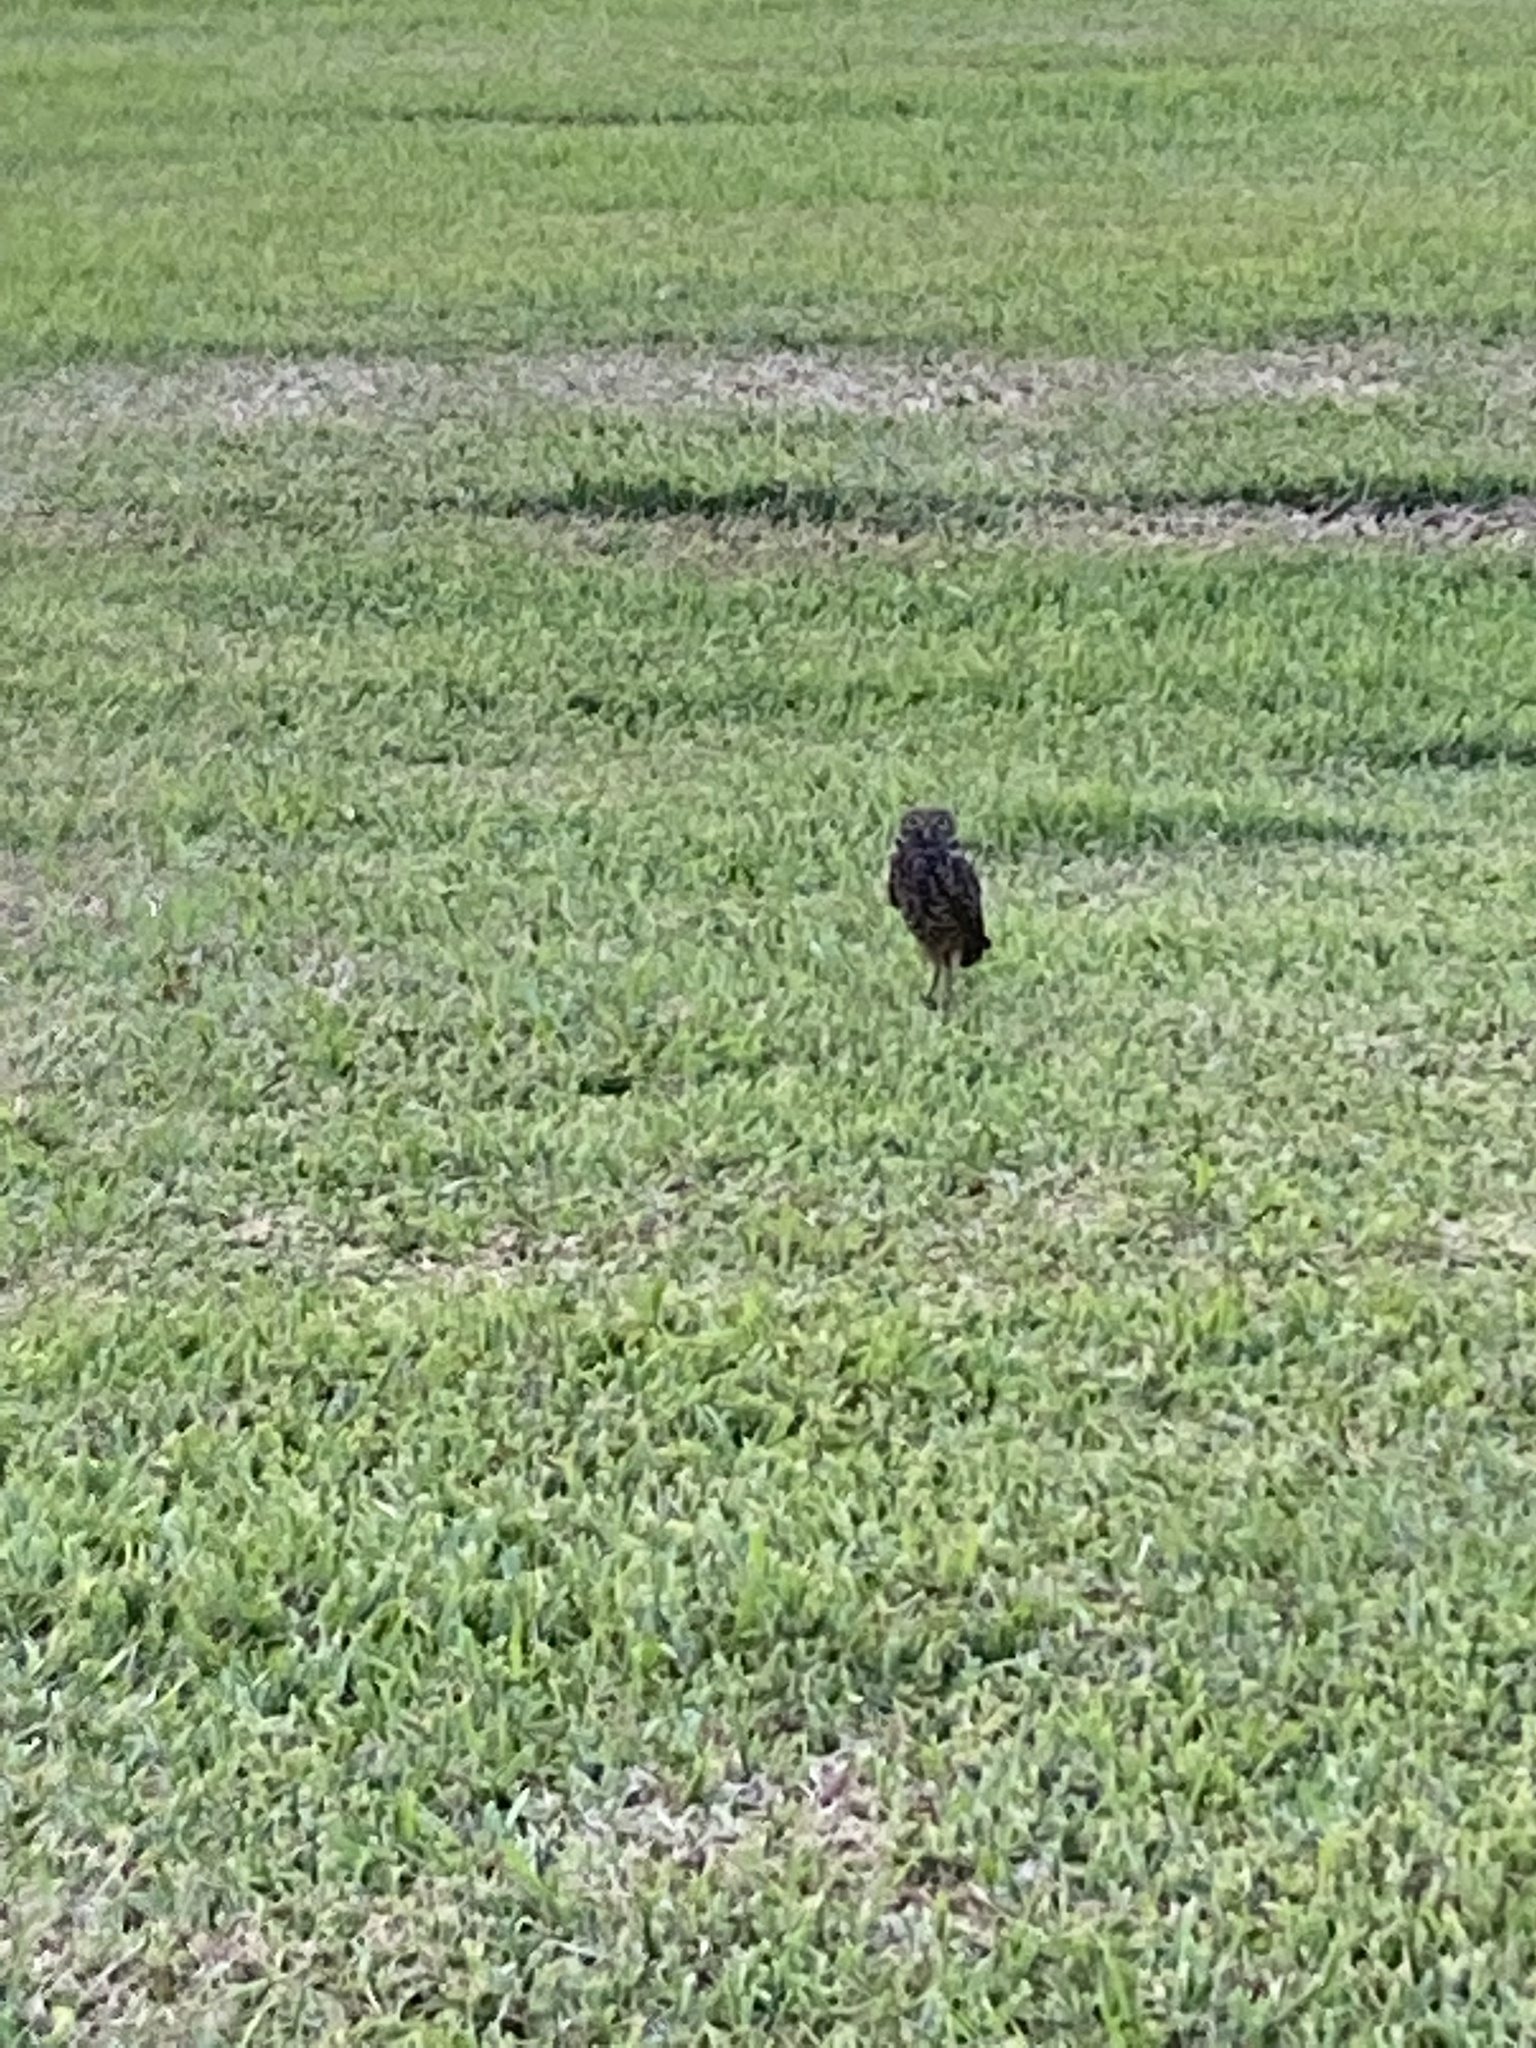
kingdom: Animalia
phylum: Chordata
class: Aves
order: Strigiformes
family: Strigidae
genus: Athene
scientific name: Athene cunicularia
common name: Burrowing owl
